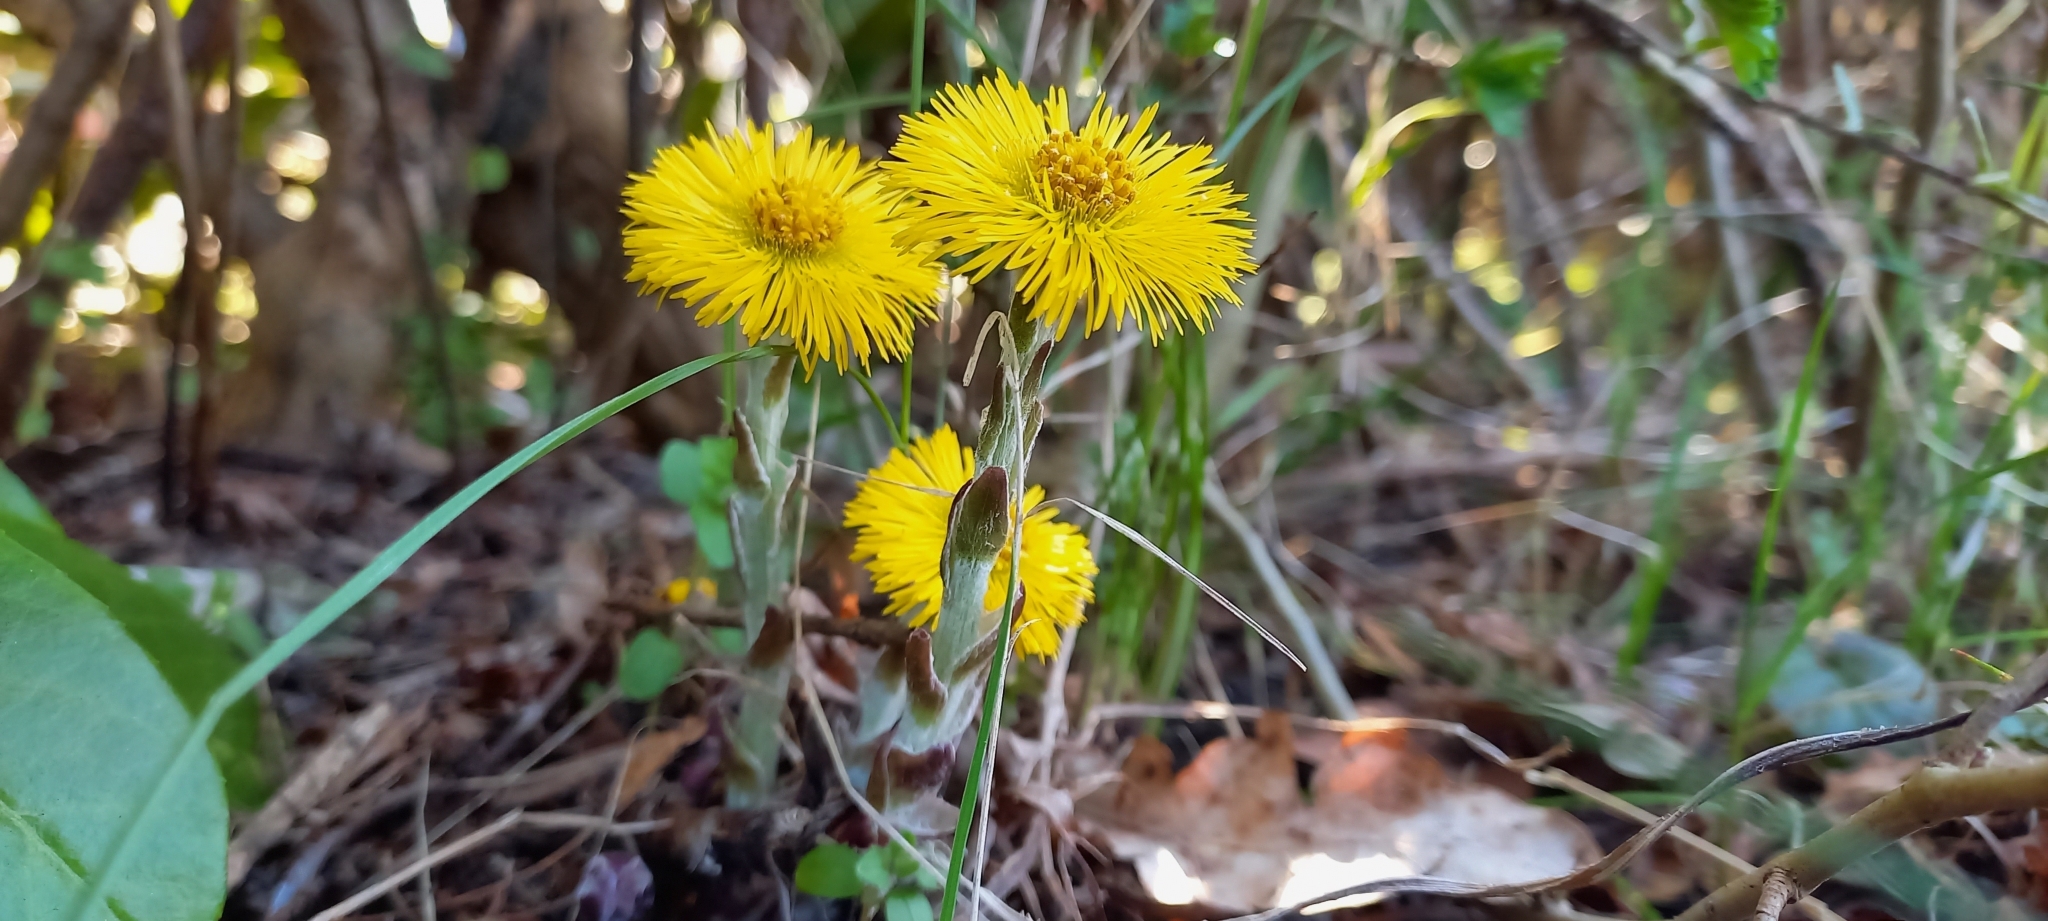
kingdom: Plantae
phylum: Tracheophyta
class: Magnoliopsida
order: Asterales
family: Asteraceae
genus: Tussilago
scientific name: Tussilago farfara
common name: Coltsfoot
